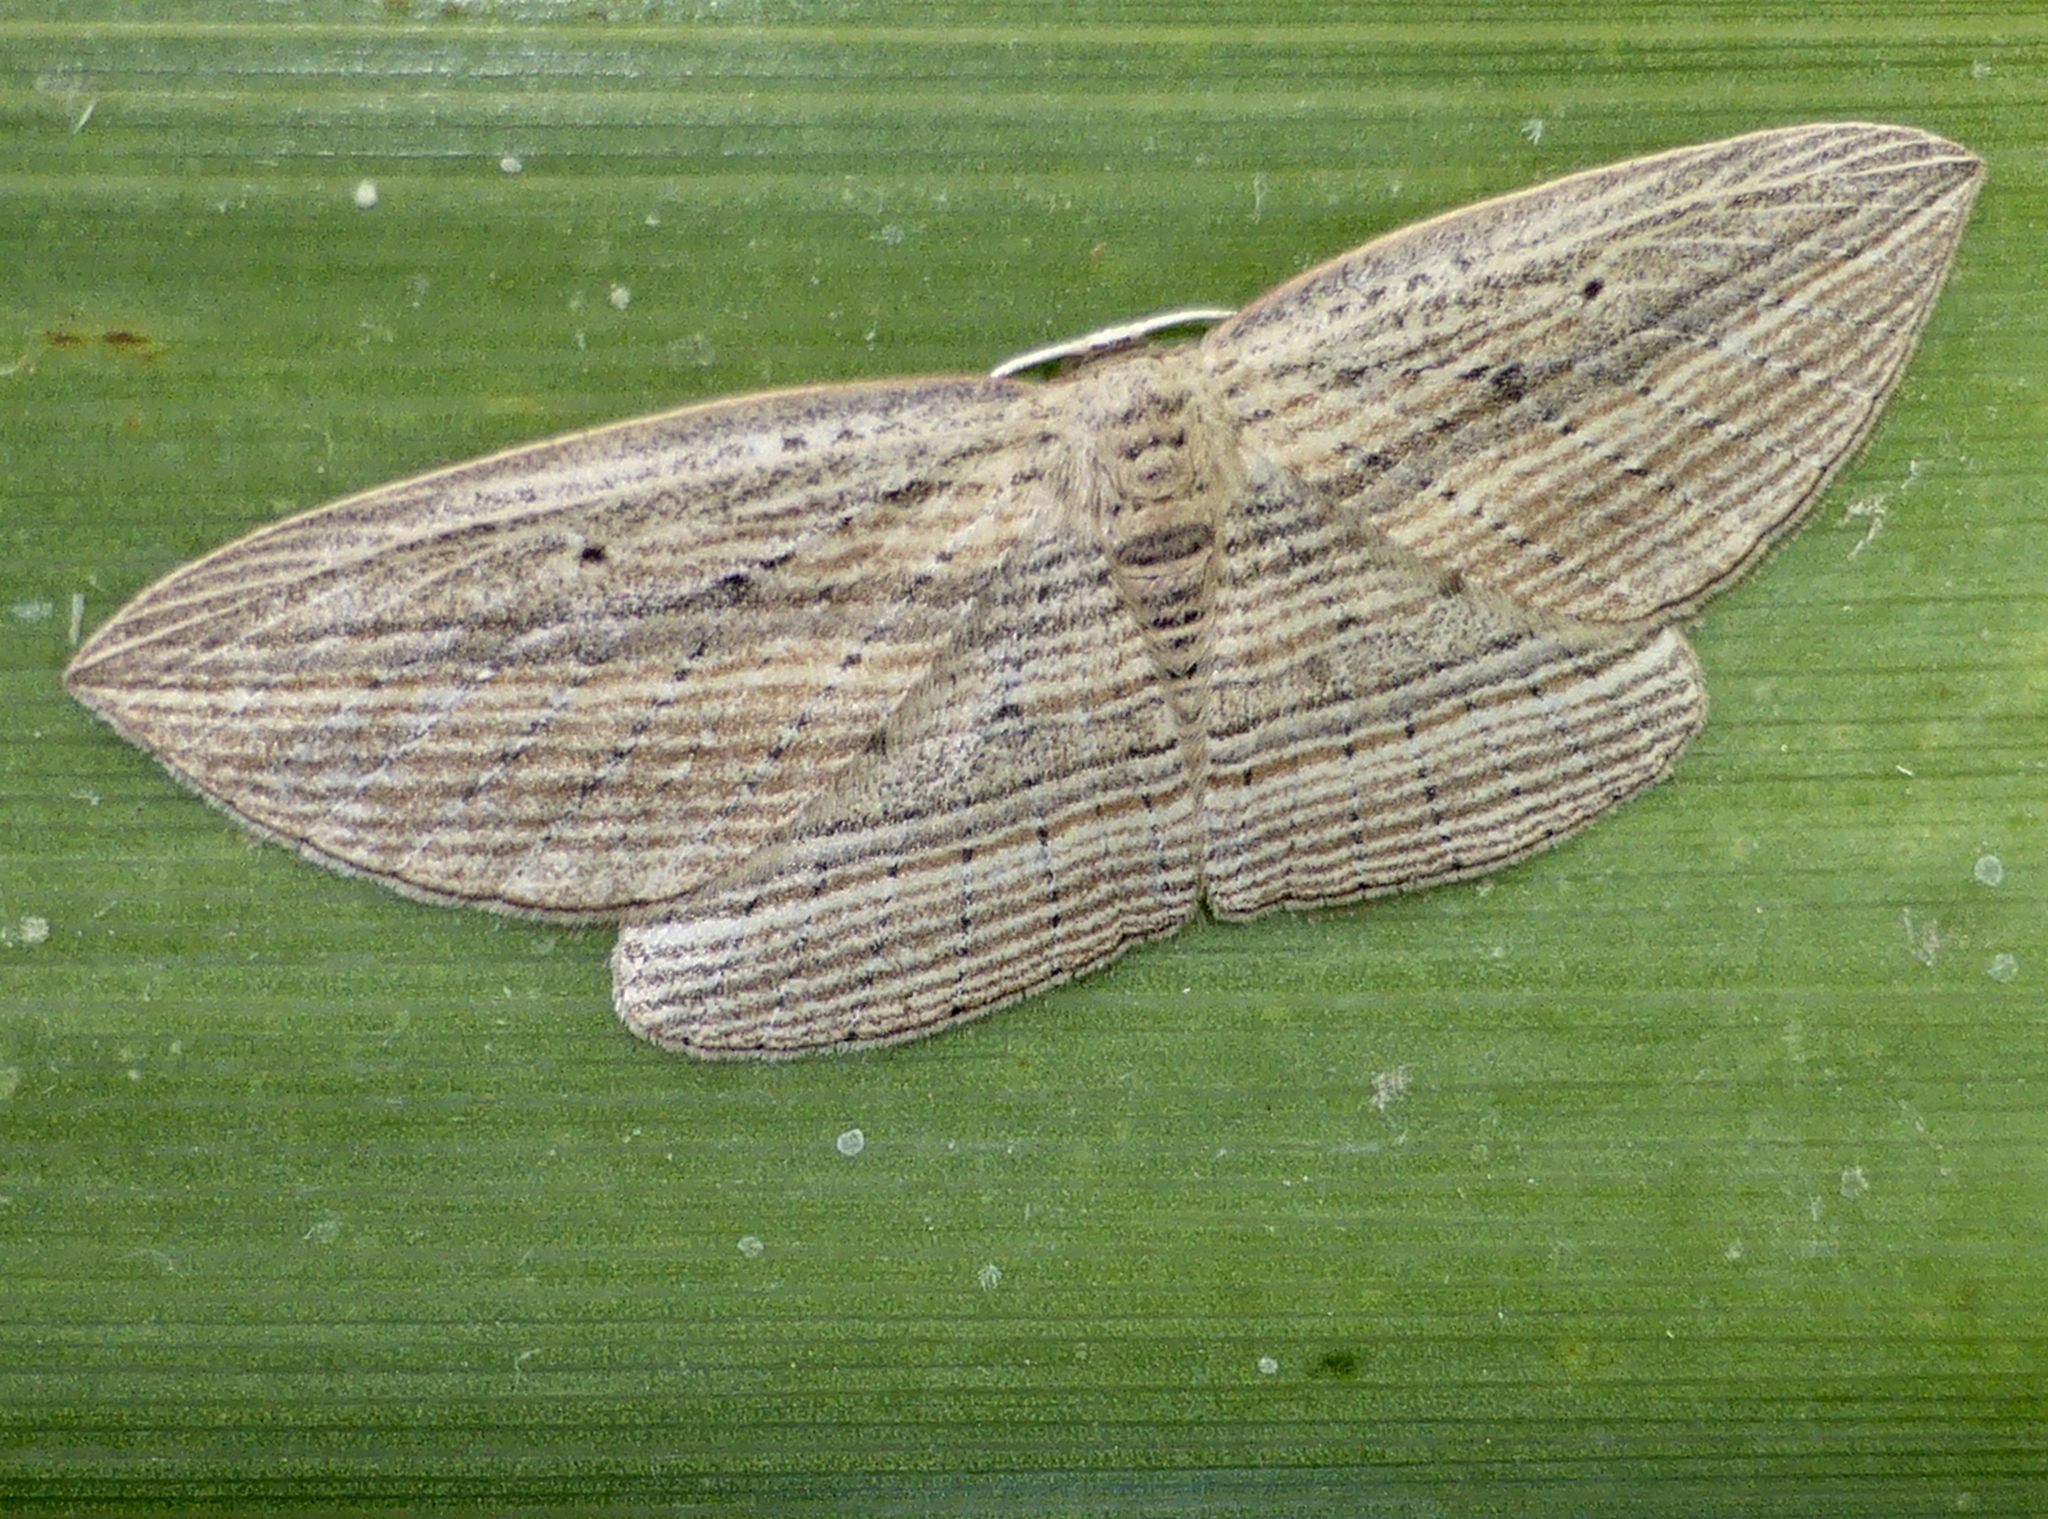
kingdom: Animalia
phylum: Arthropoda
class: Insecta
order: Lepidoptera
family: Geometridae
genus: Epiphryne
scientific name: Epiphryne verriculata
